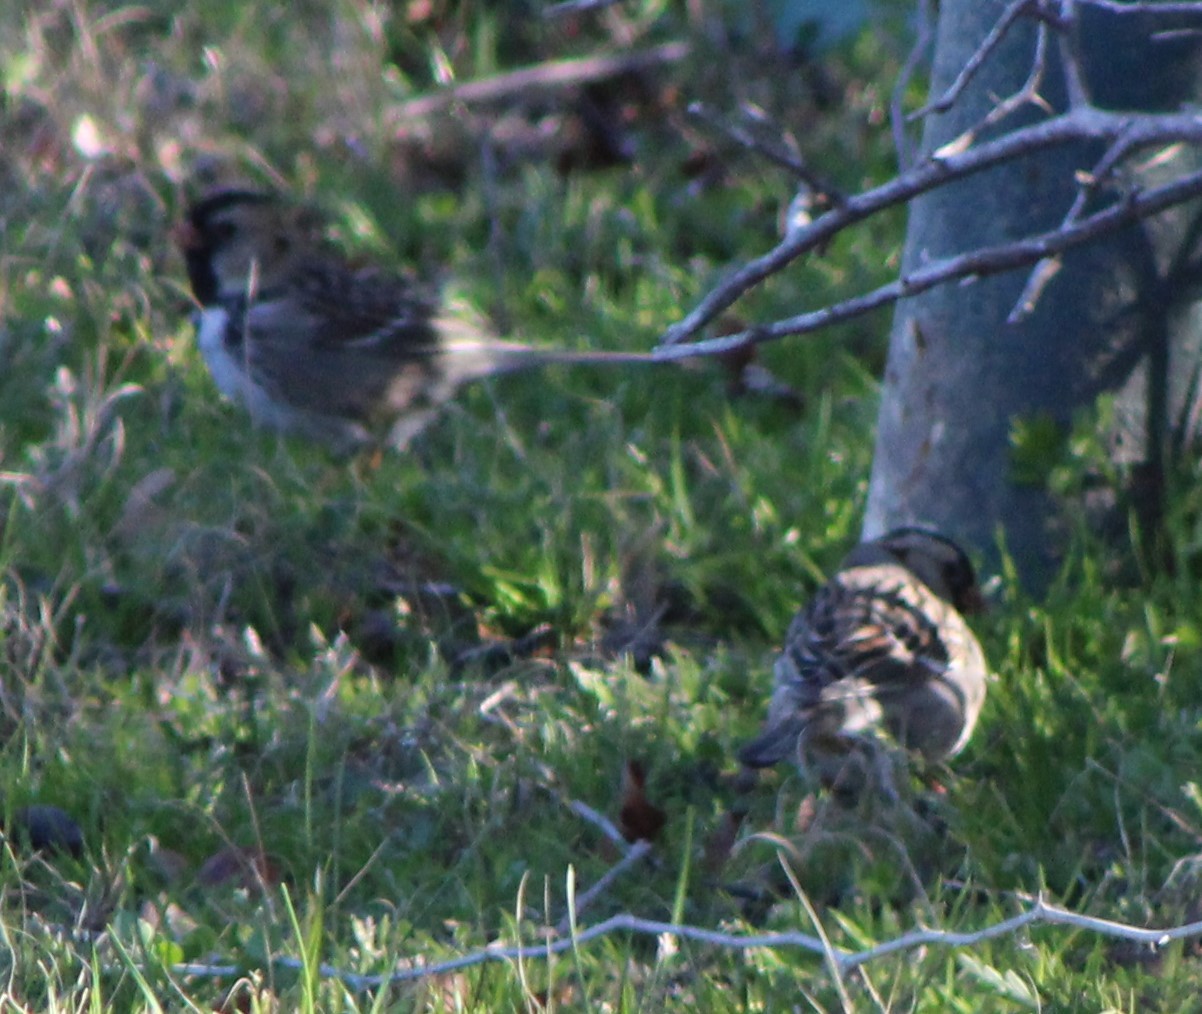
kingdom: Animalia
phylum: Chordata
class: Aves
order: Passeriformes
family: Passerellidae
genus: Zonotrichia
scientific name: Zonotrichia querula
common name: Harris's sparrow
